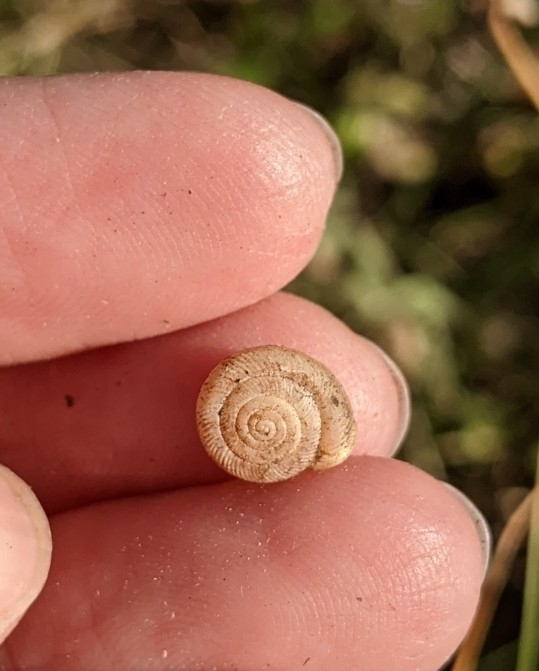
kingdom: Animalia
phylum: Mollusca
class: Gastropoda
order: Stylommatophora
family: Polygyridae
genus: Linisa
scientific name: Linisa texasiana
